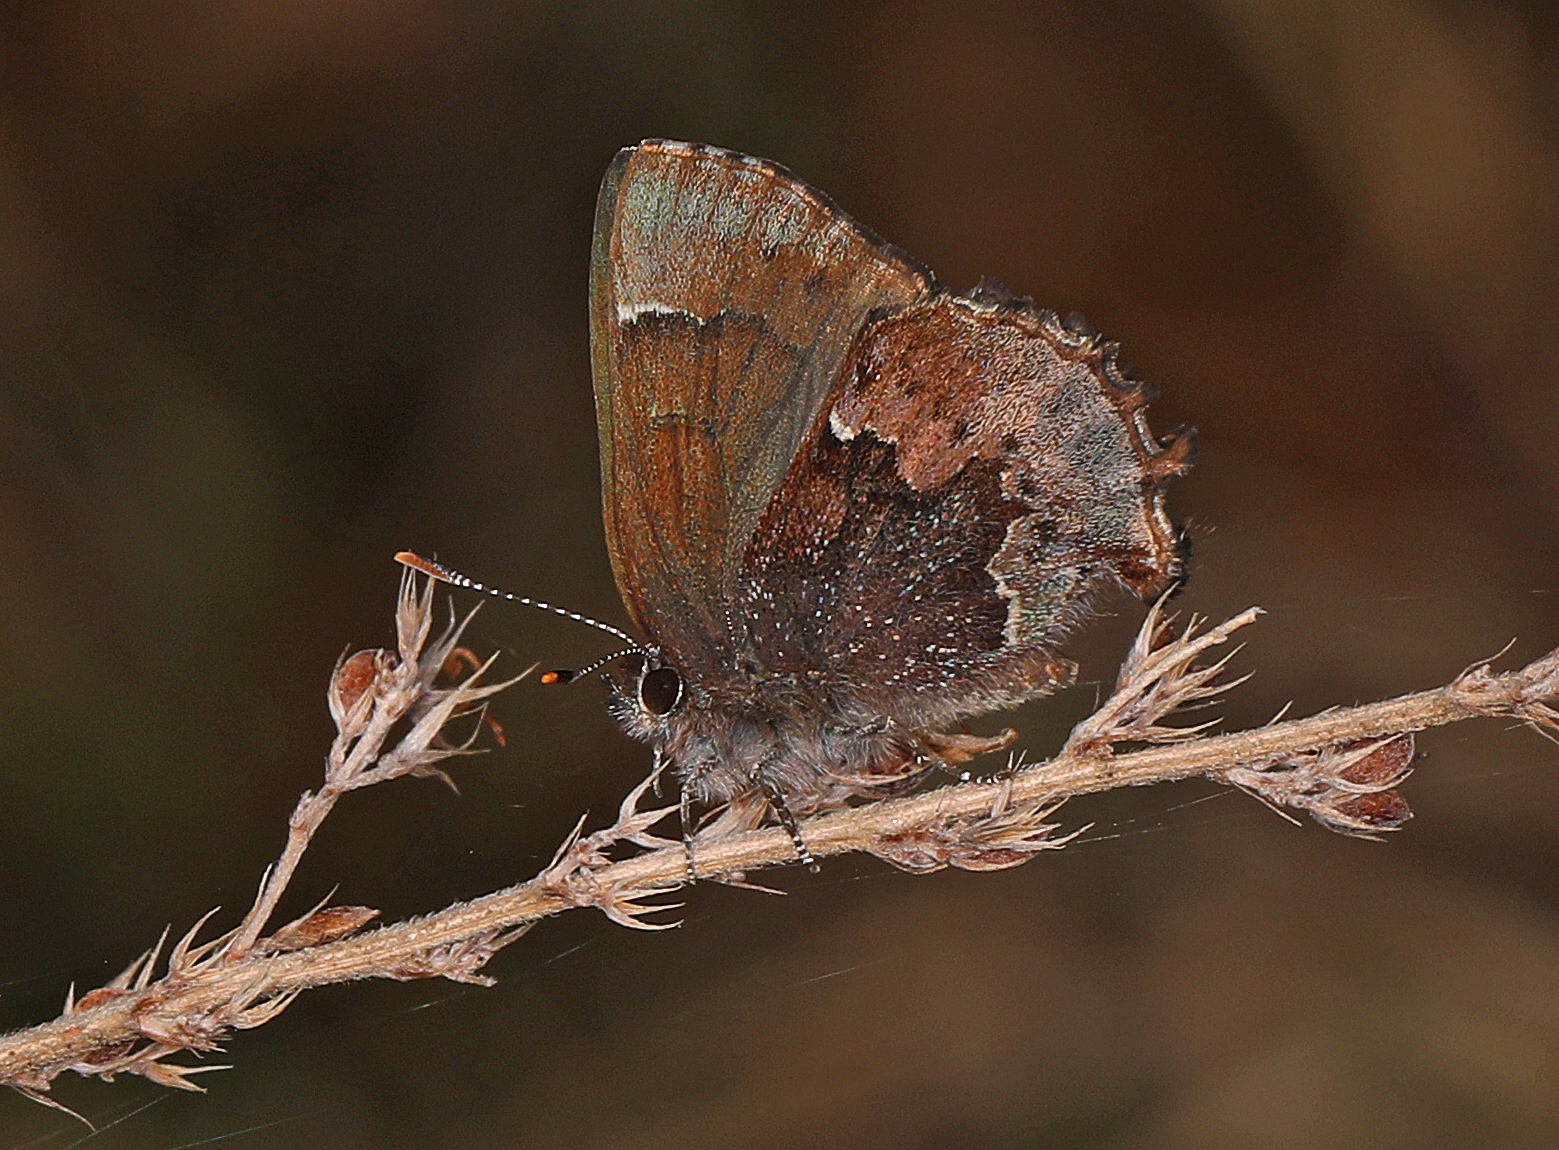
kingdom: Animalia
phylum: Arthropoda
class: Insecta
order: Lepidoptera
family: Lycaenidae
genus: Incisalia
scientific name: Incisalia henrici
